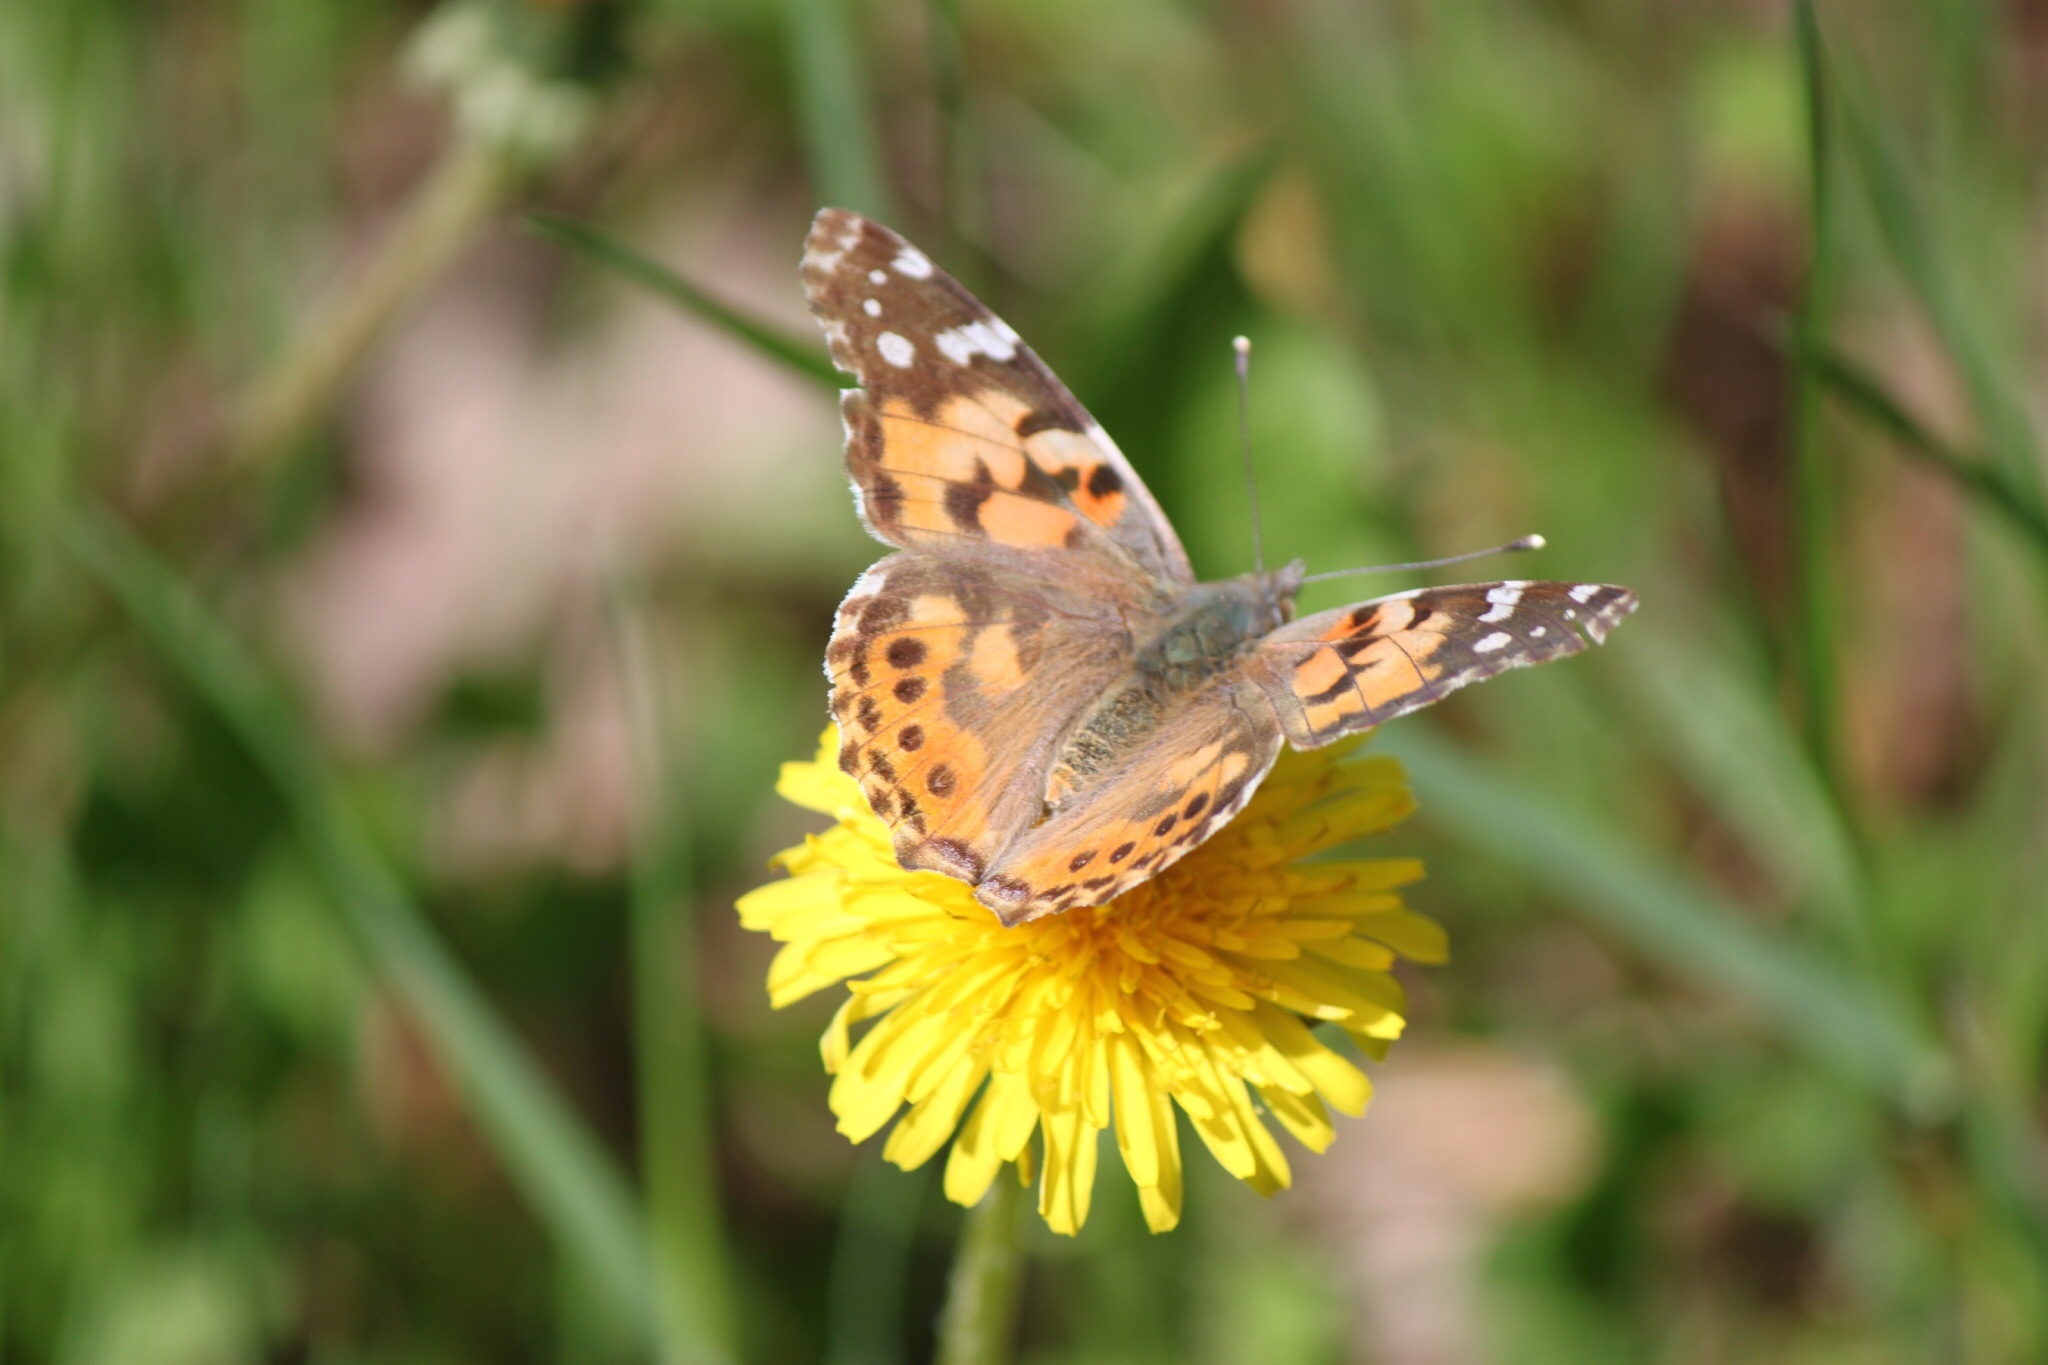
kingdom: Animalia
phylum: Arthropoda
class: Insecta
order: Lepidoptera
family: Nymphalidae
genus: Vanessa
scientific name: Vanessa cardui
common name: Painted lady
